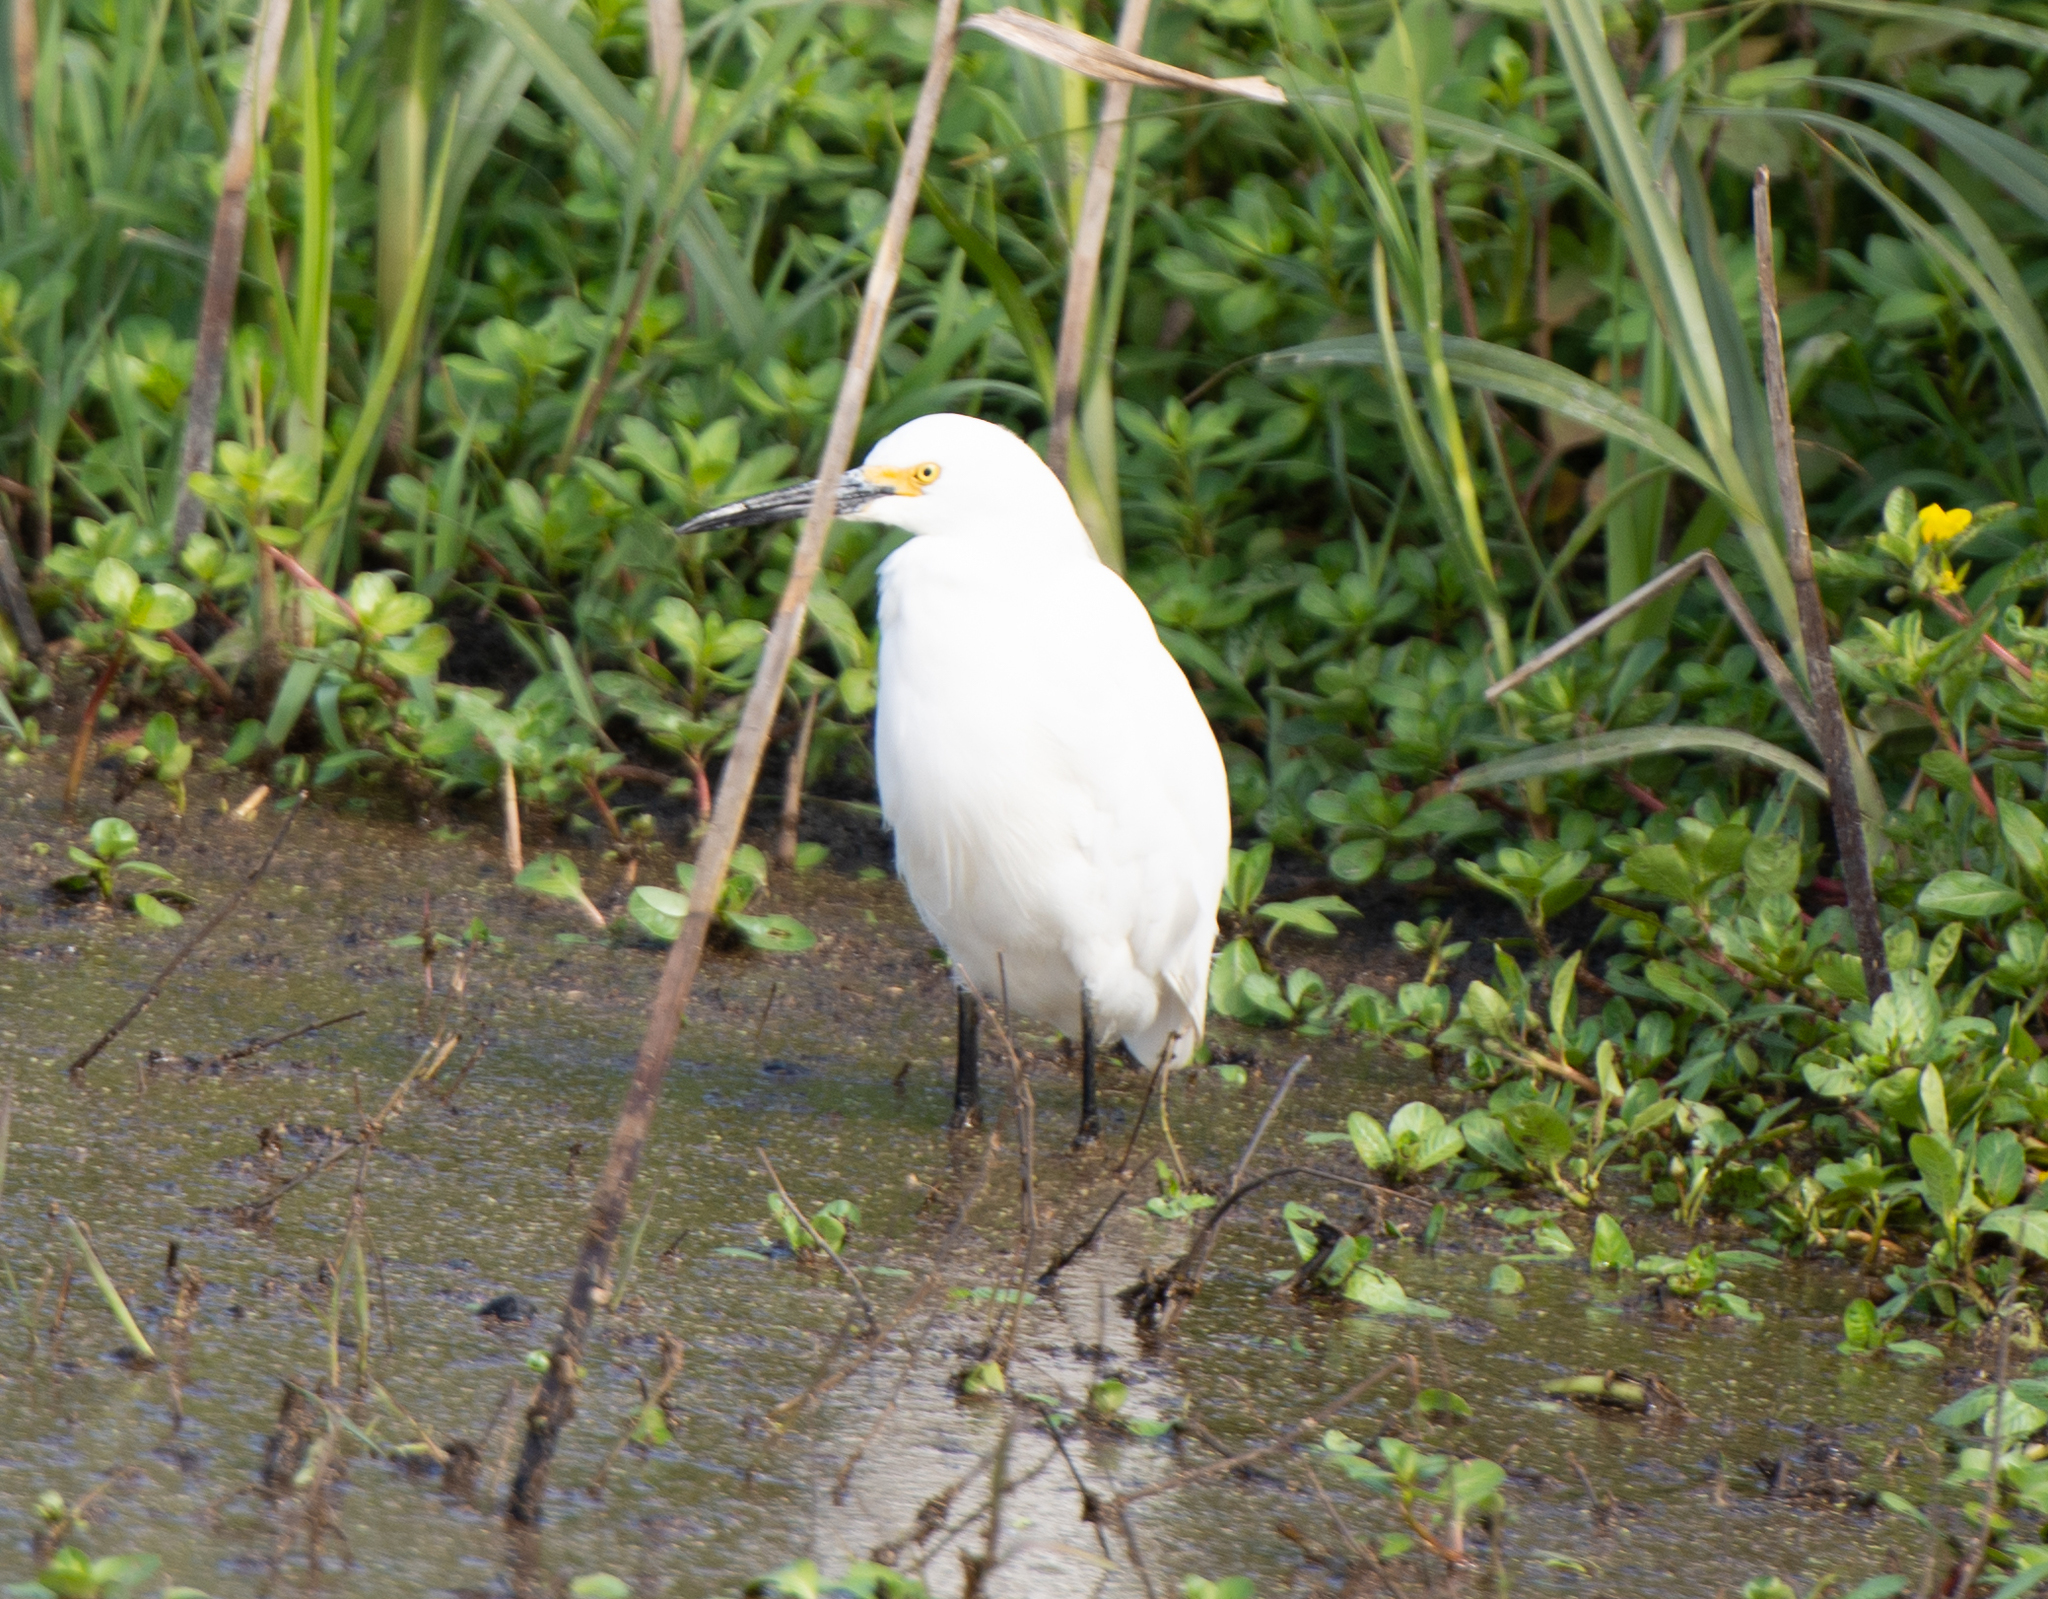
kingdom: Animalia
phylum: Chordata
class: Aves
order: Pelecaniformes
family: Ardeidae
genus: Egretta
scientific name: Egretta thula
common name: Snowy egret
